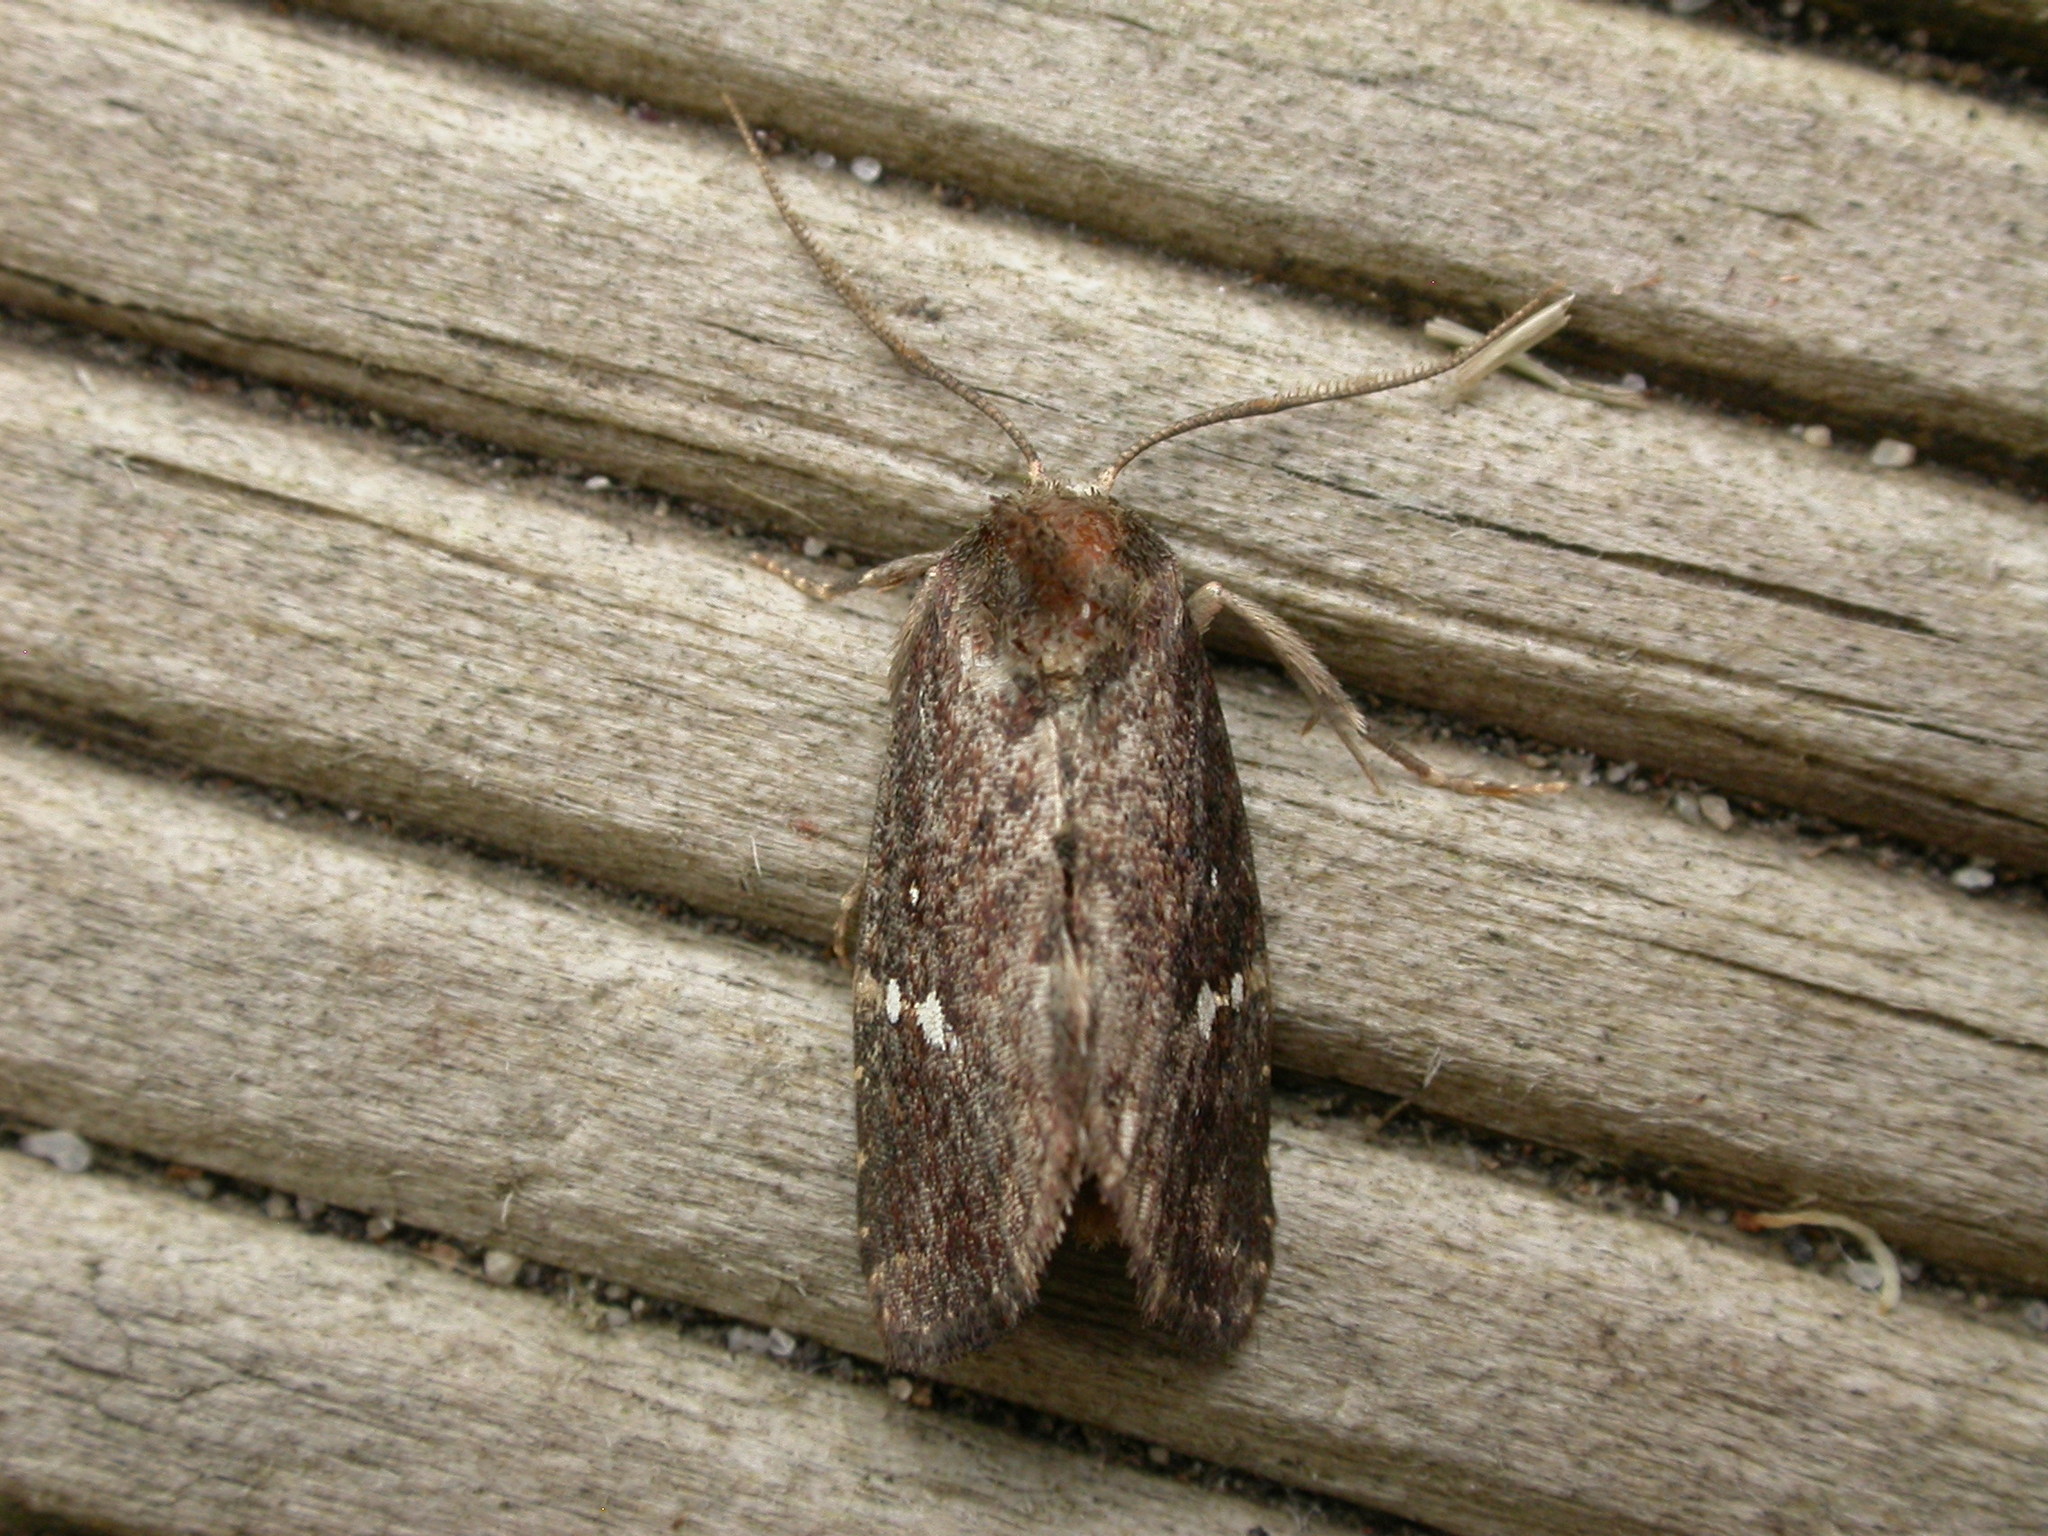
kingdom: Animalia
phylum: Arthropoda
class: Insecta
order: Lepidoptera
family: Noctuidae
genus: Elusa
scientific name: Elusa semipecten
